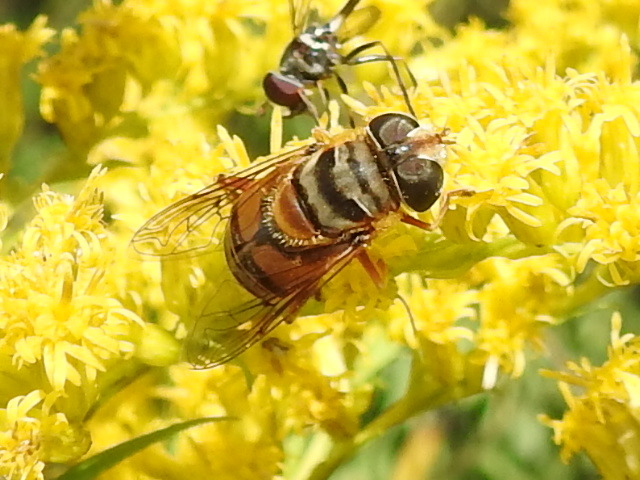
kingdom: Animalia
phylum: Arthropoda
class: Insecta
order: Diptera
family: Syrphidae
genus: Palpada
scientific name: Palpada vinetorum
